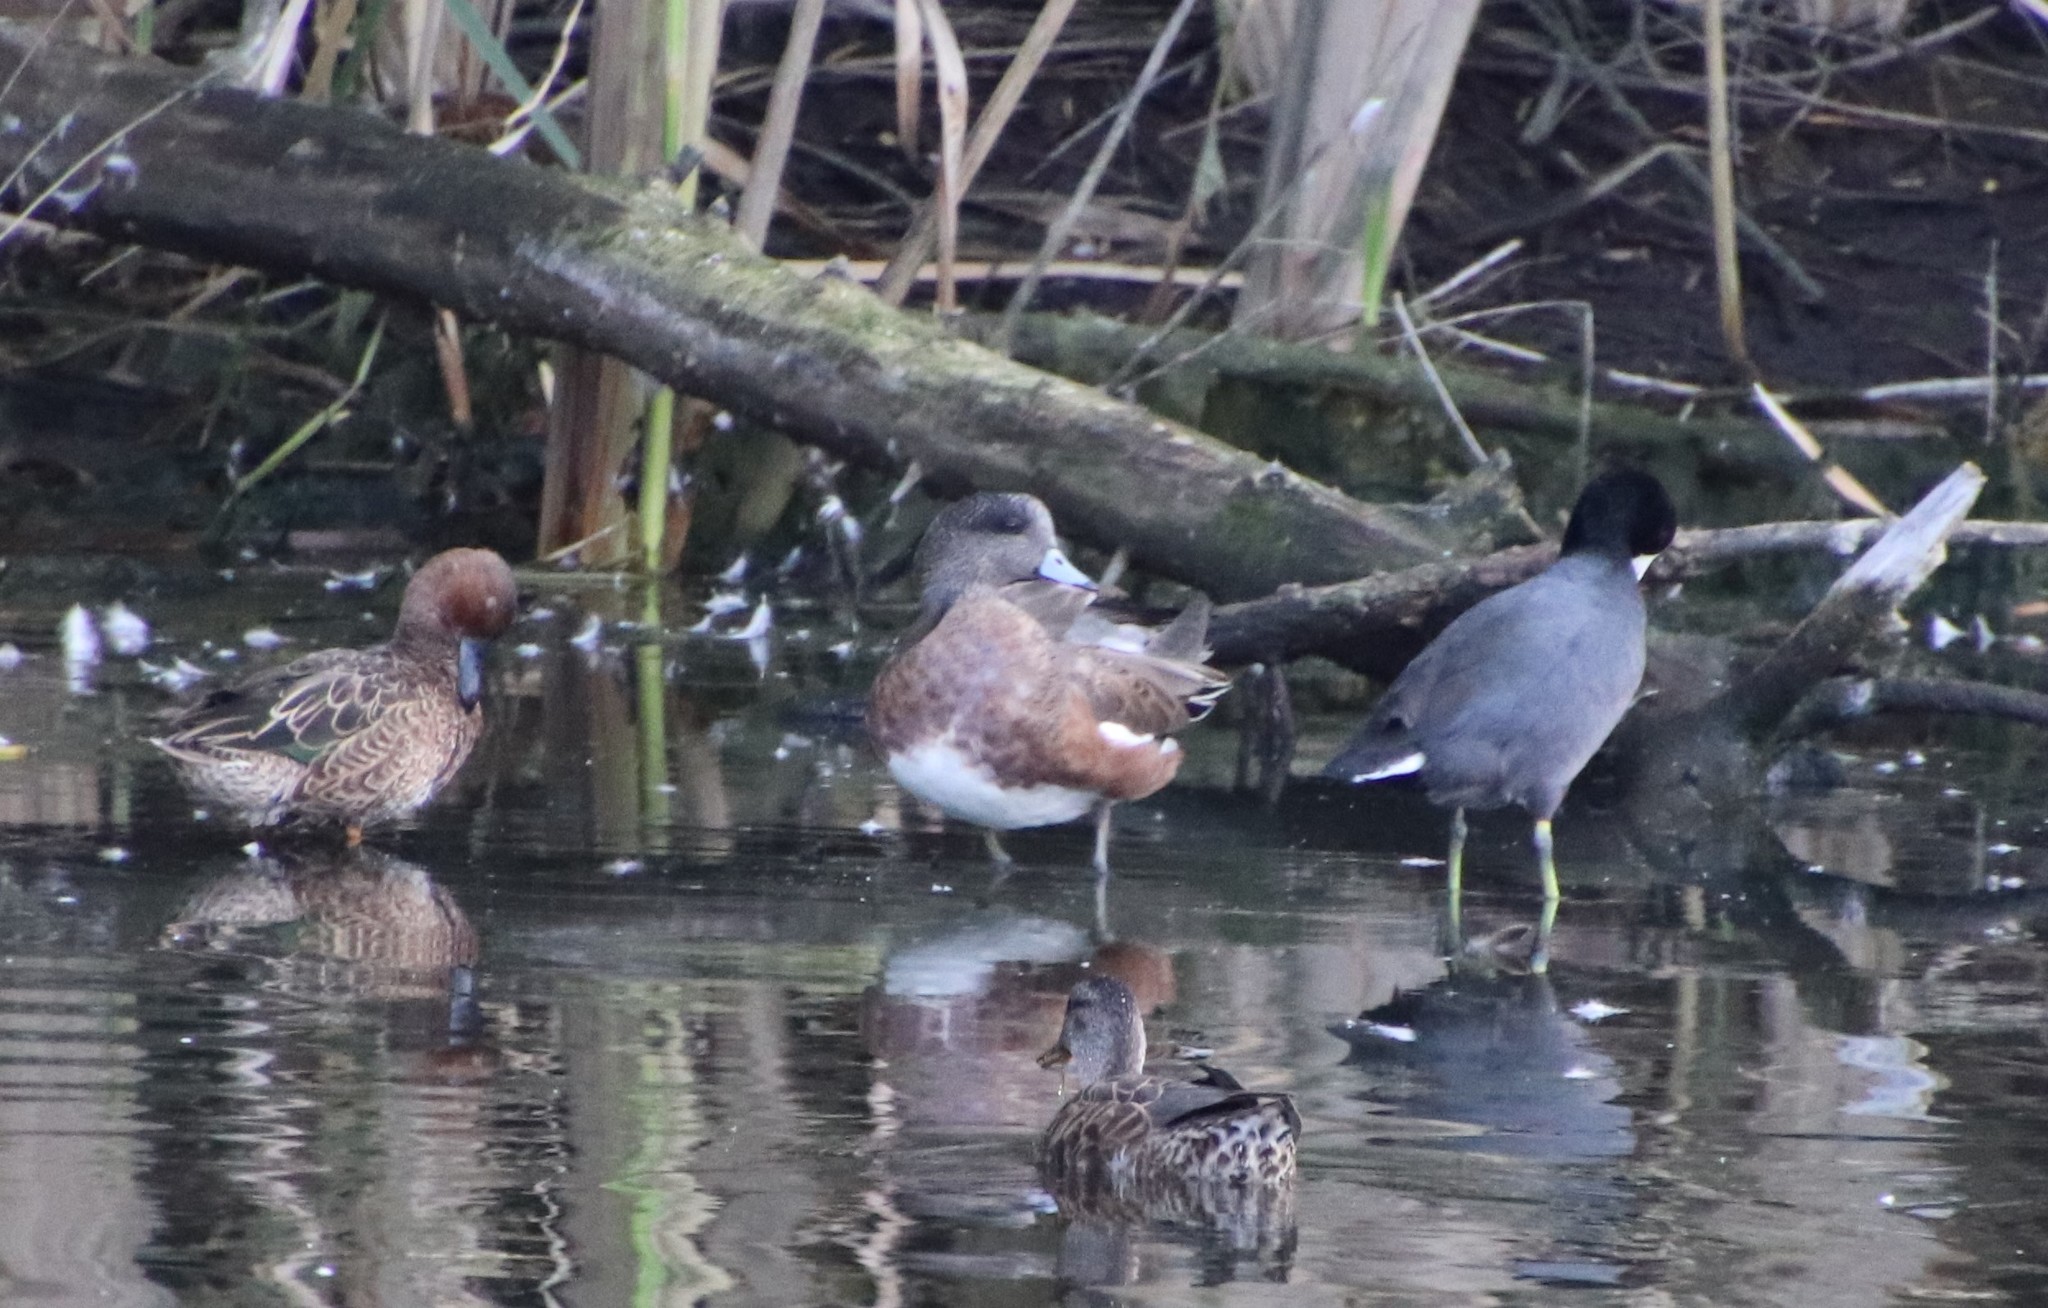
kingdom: Animalia
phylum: Chordata
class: Aves
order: Anseriformes
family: Anatidae
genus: Mareca
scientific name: Mareca americana
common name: American wigeon
